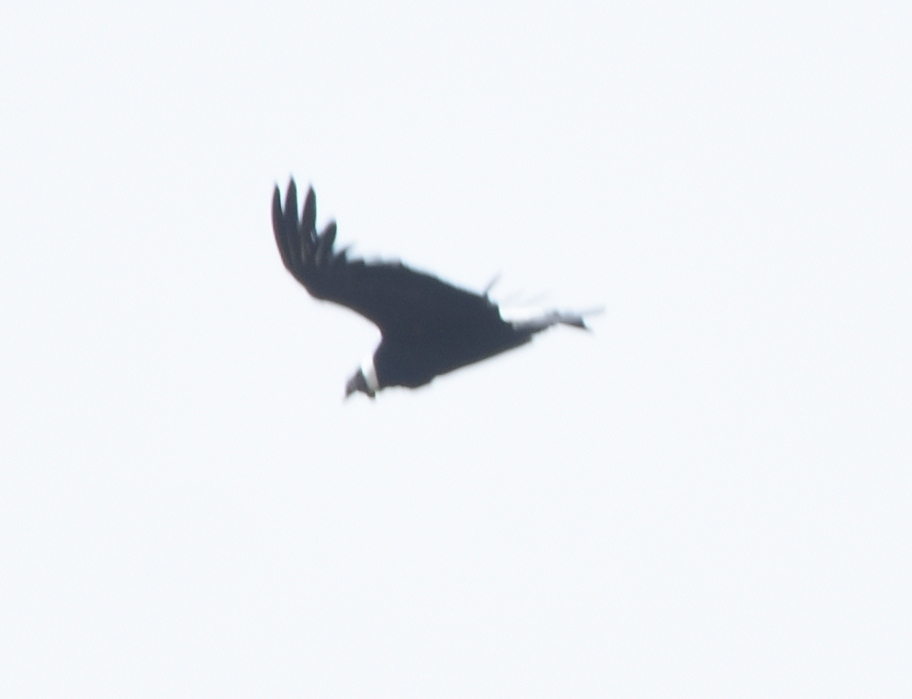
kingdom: Animalia
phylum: Chordata
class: Aves
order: Accipitriformes
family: Cathartidae
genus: Vultur
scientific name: Vultur gryphus
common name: Andean condor
